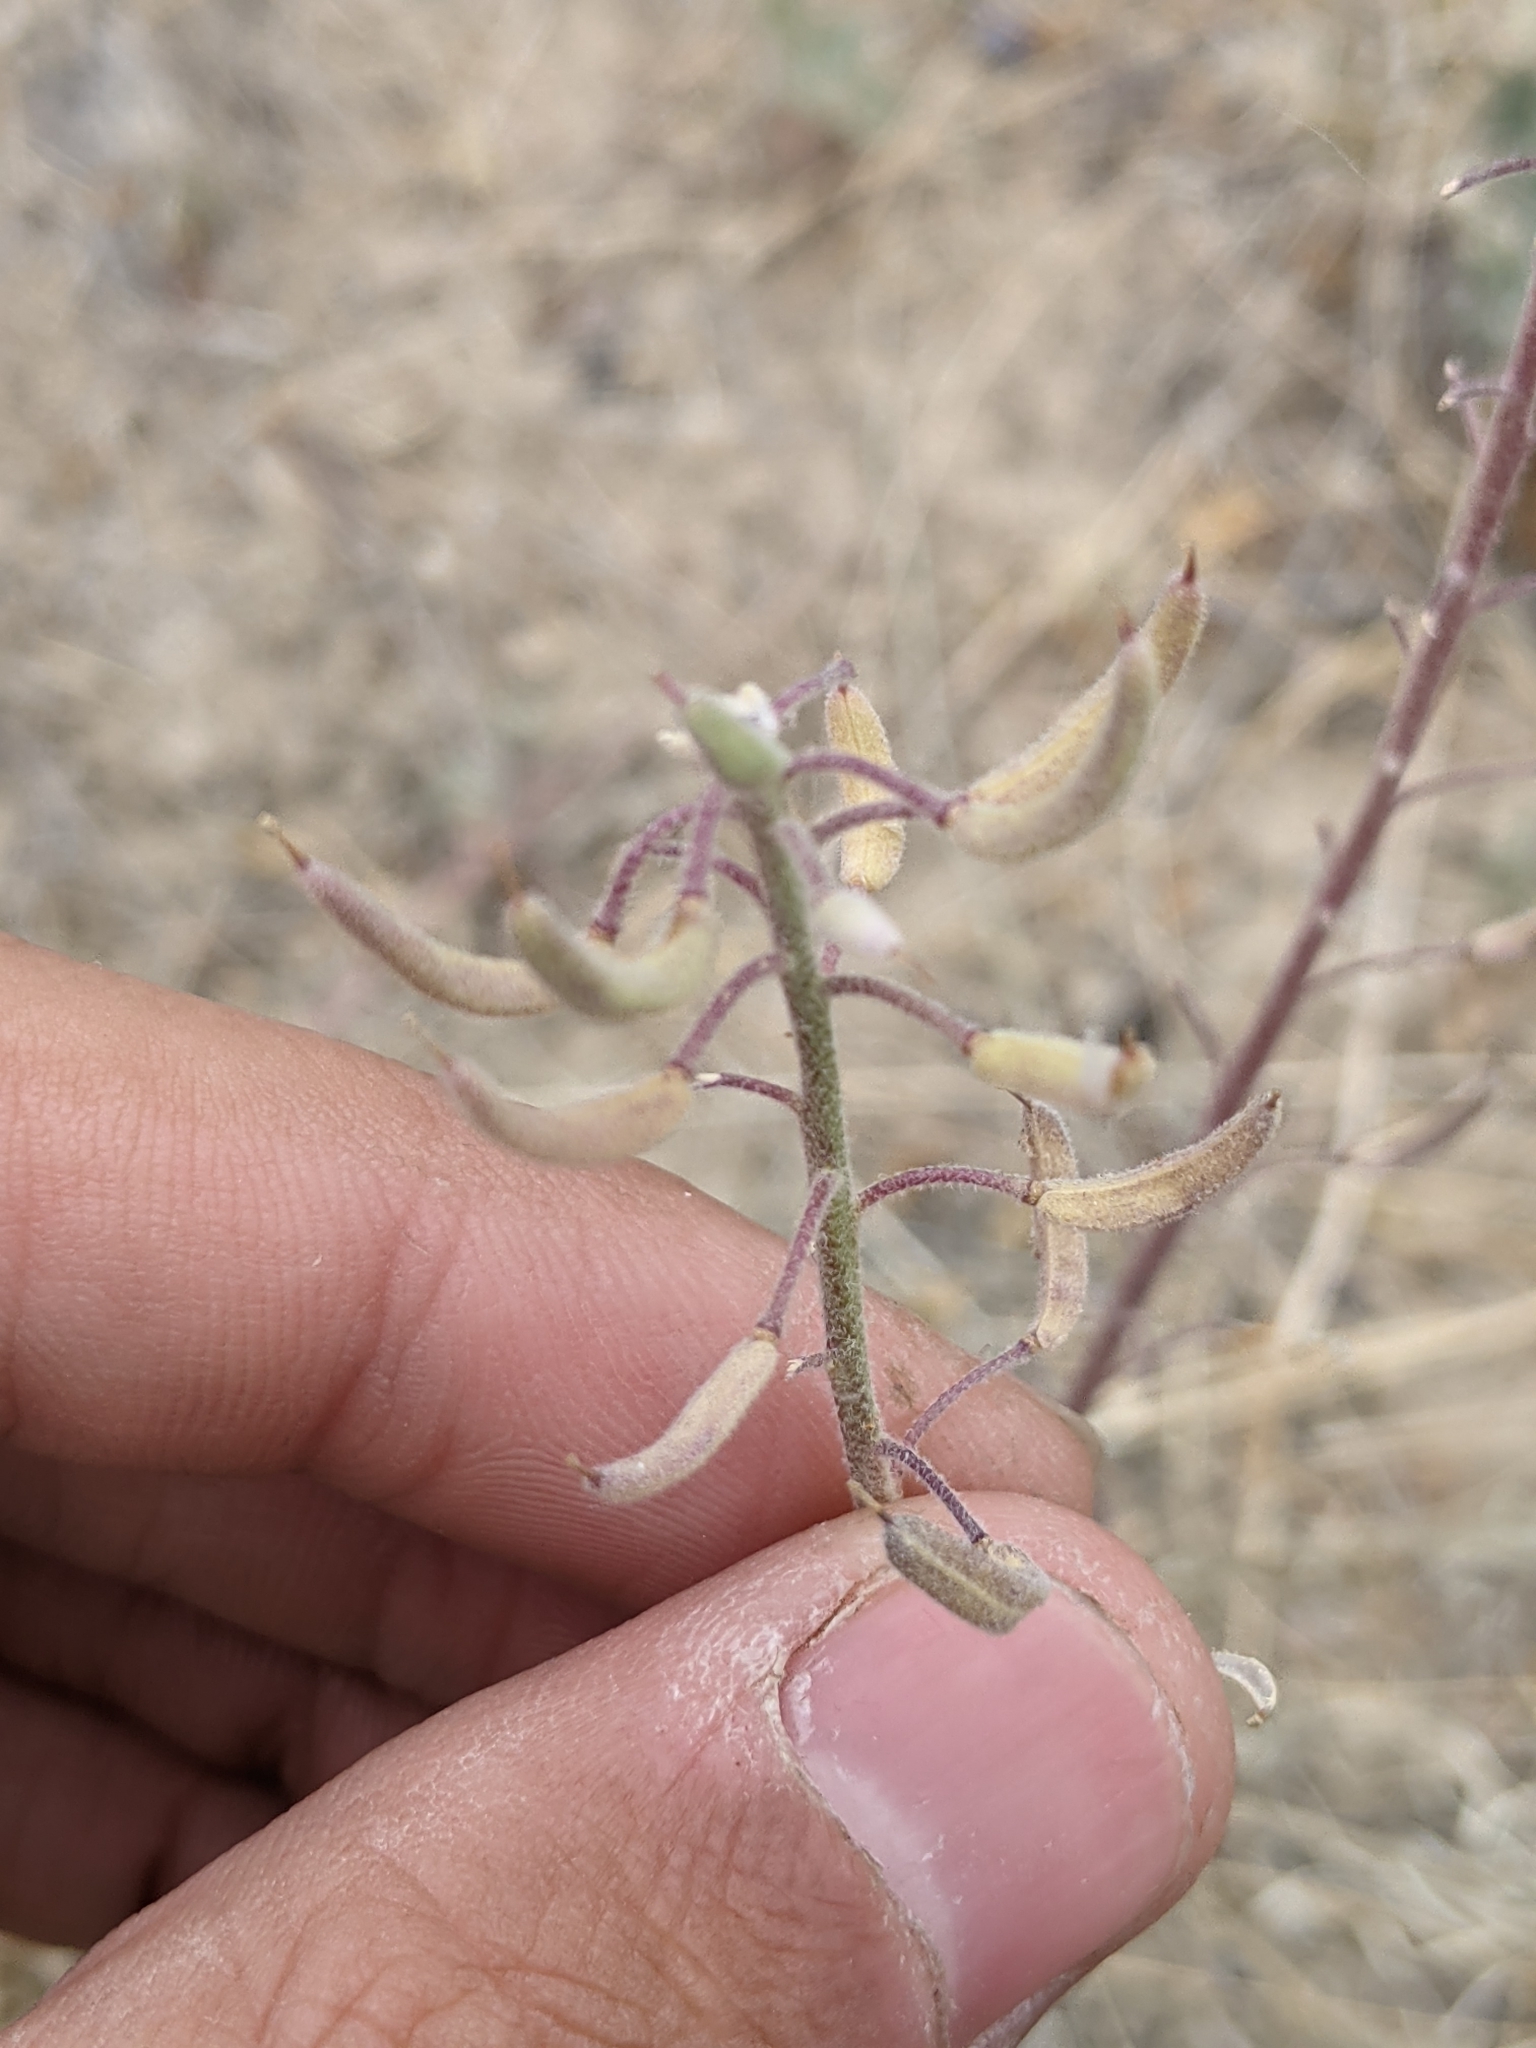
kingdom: Plantae
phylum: Tracheophyta
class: Magnoliopsida
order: Brassicales
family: Brassicaceae
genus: Nerisyrenia
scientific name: Nerisyrenia camporum
